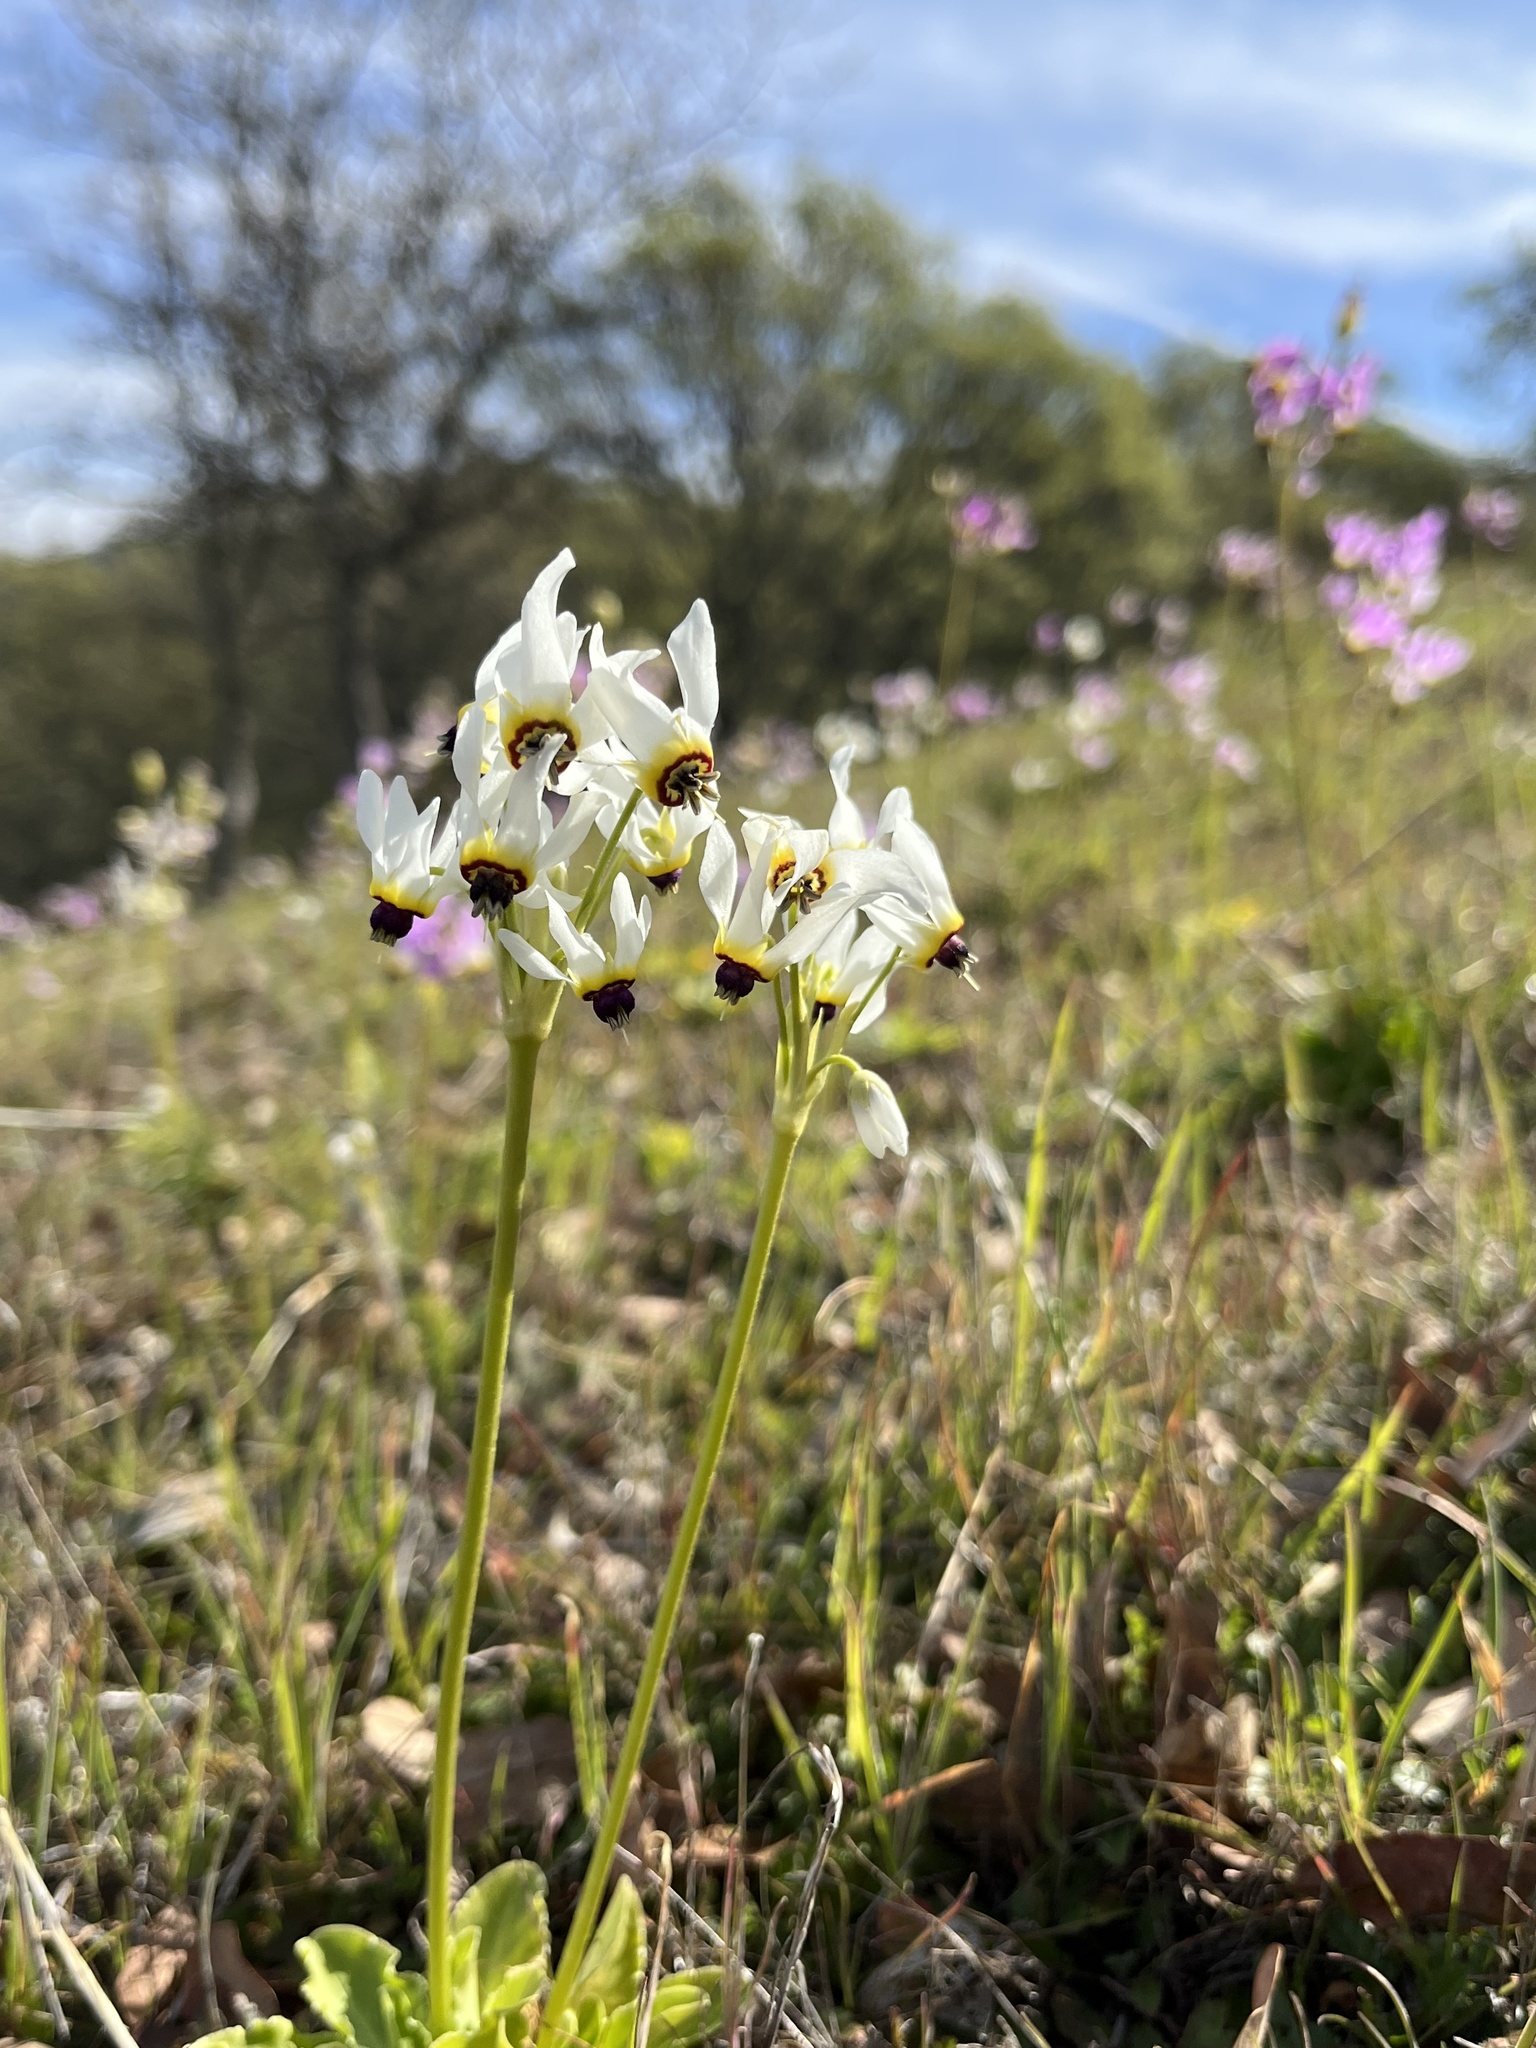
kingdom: Plantae
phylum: Tracheophyta
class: Magnoliopsida
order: Ericales
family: Primulaceae
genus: Dodecatheon
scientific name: Dodecatheon clevelandii
